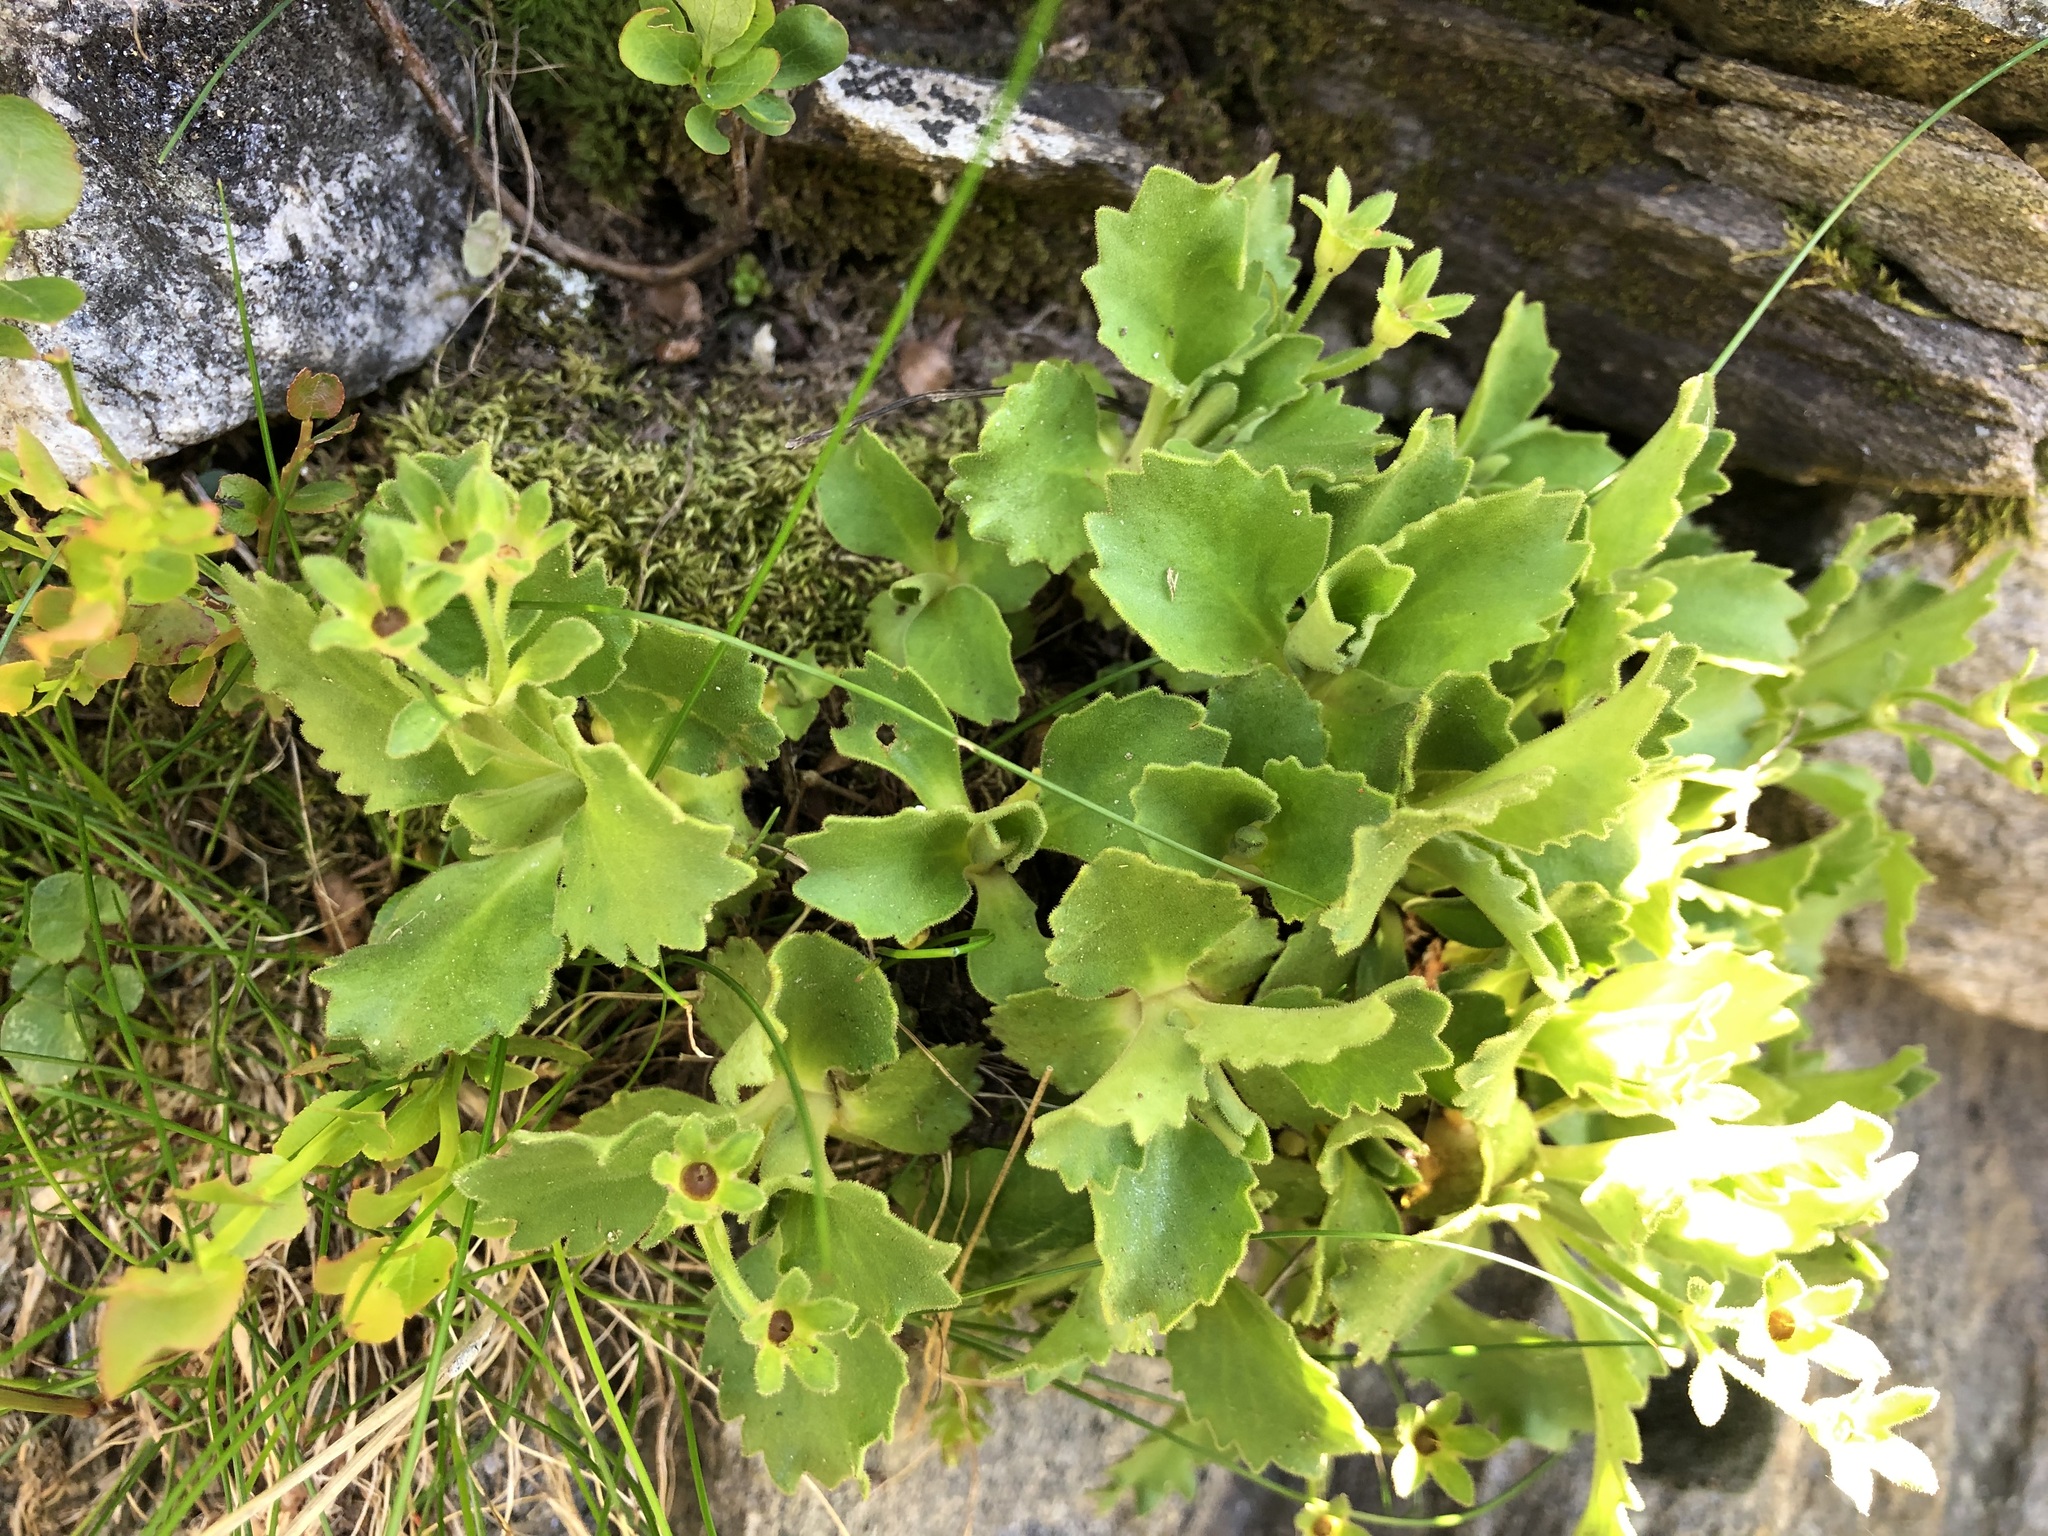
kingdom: Plantae
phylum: Tracheophyta
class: Magnoliopsida
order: Ericales
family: Primulaceae
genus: Primula
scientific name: Primula hirsuta
